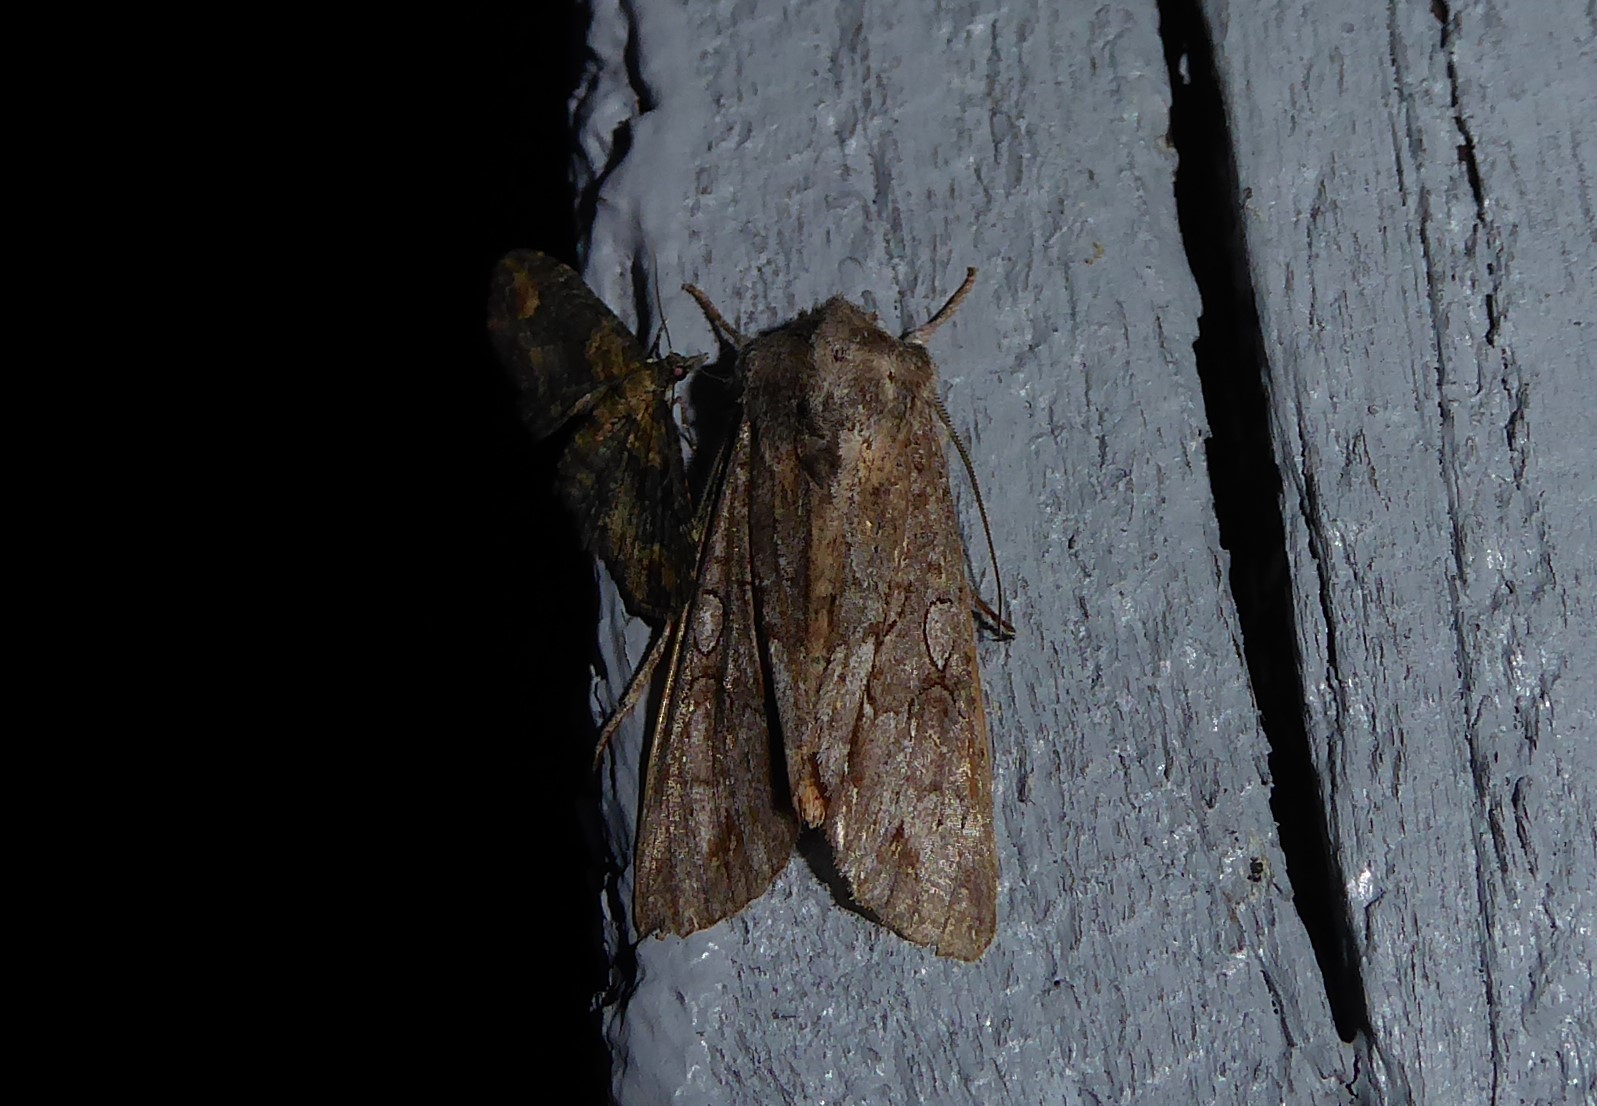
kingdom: Animalia
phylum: Arthropoda
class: Insecta
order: Lepidoptera
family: Noctuidae
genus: Ichneutica
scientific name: Ichneutica
